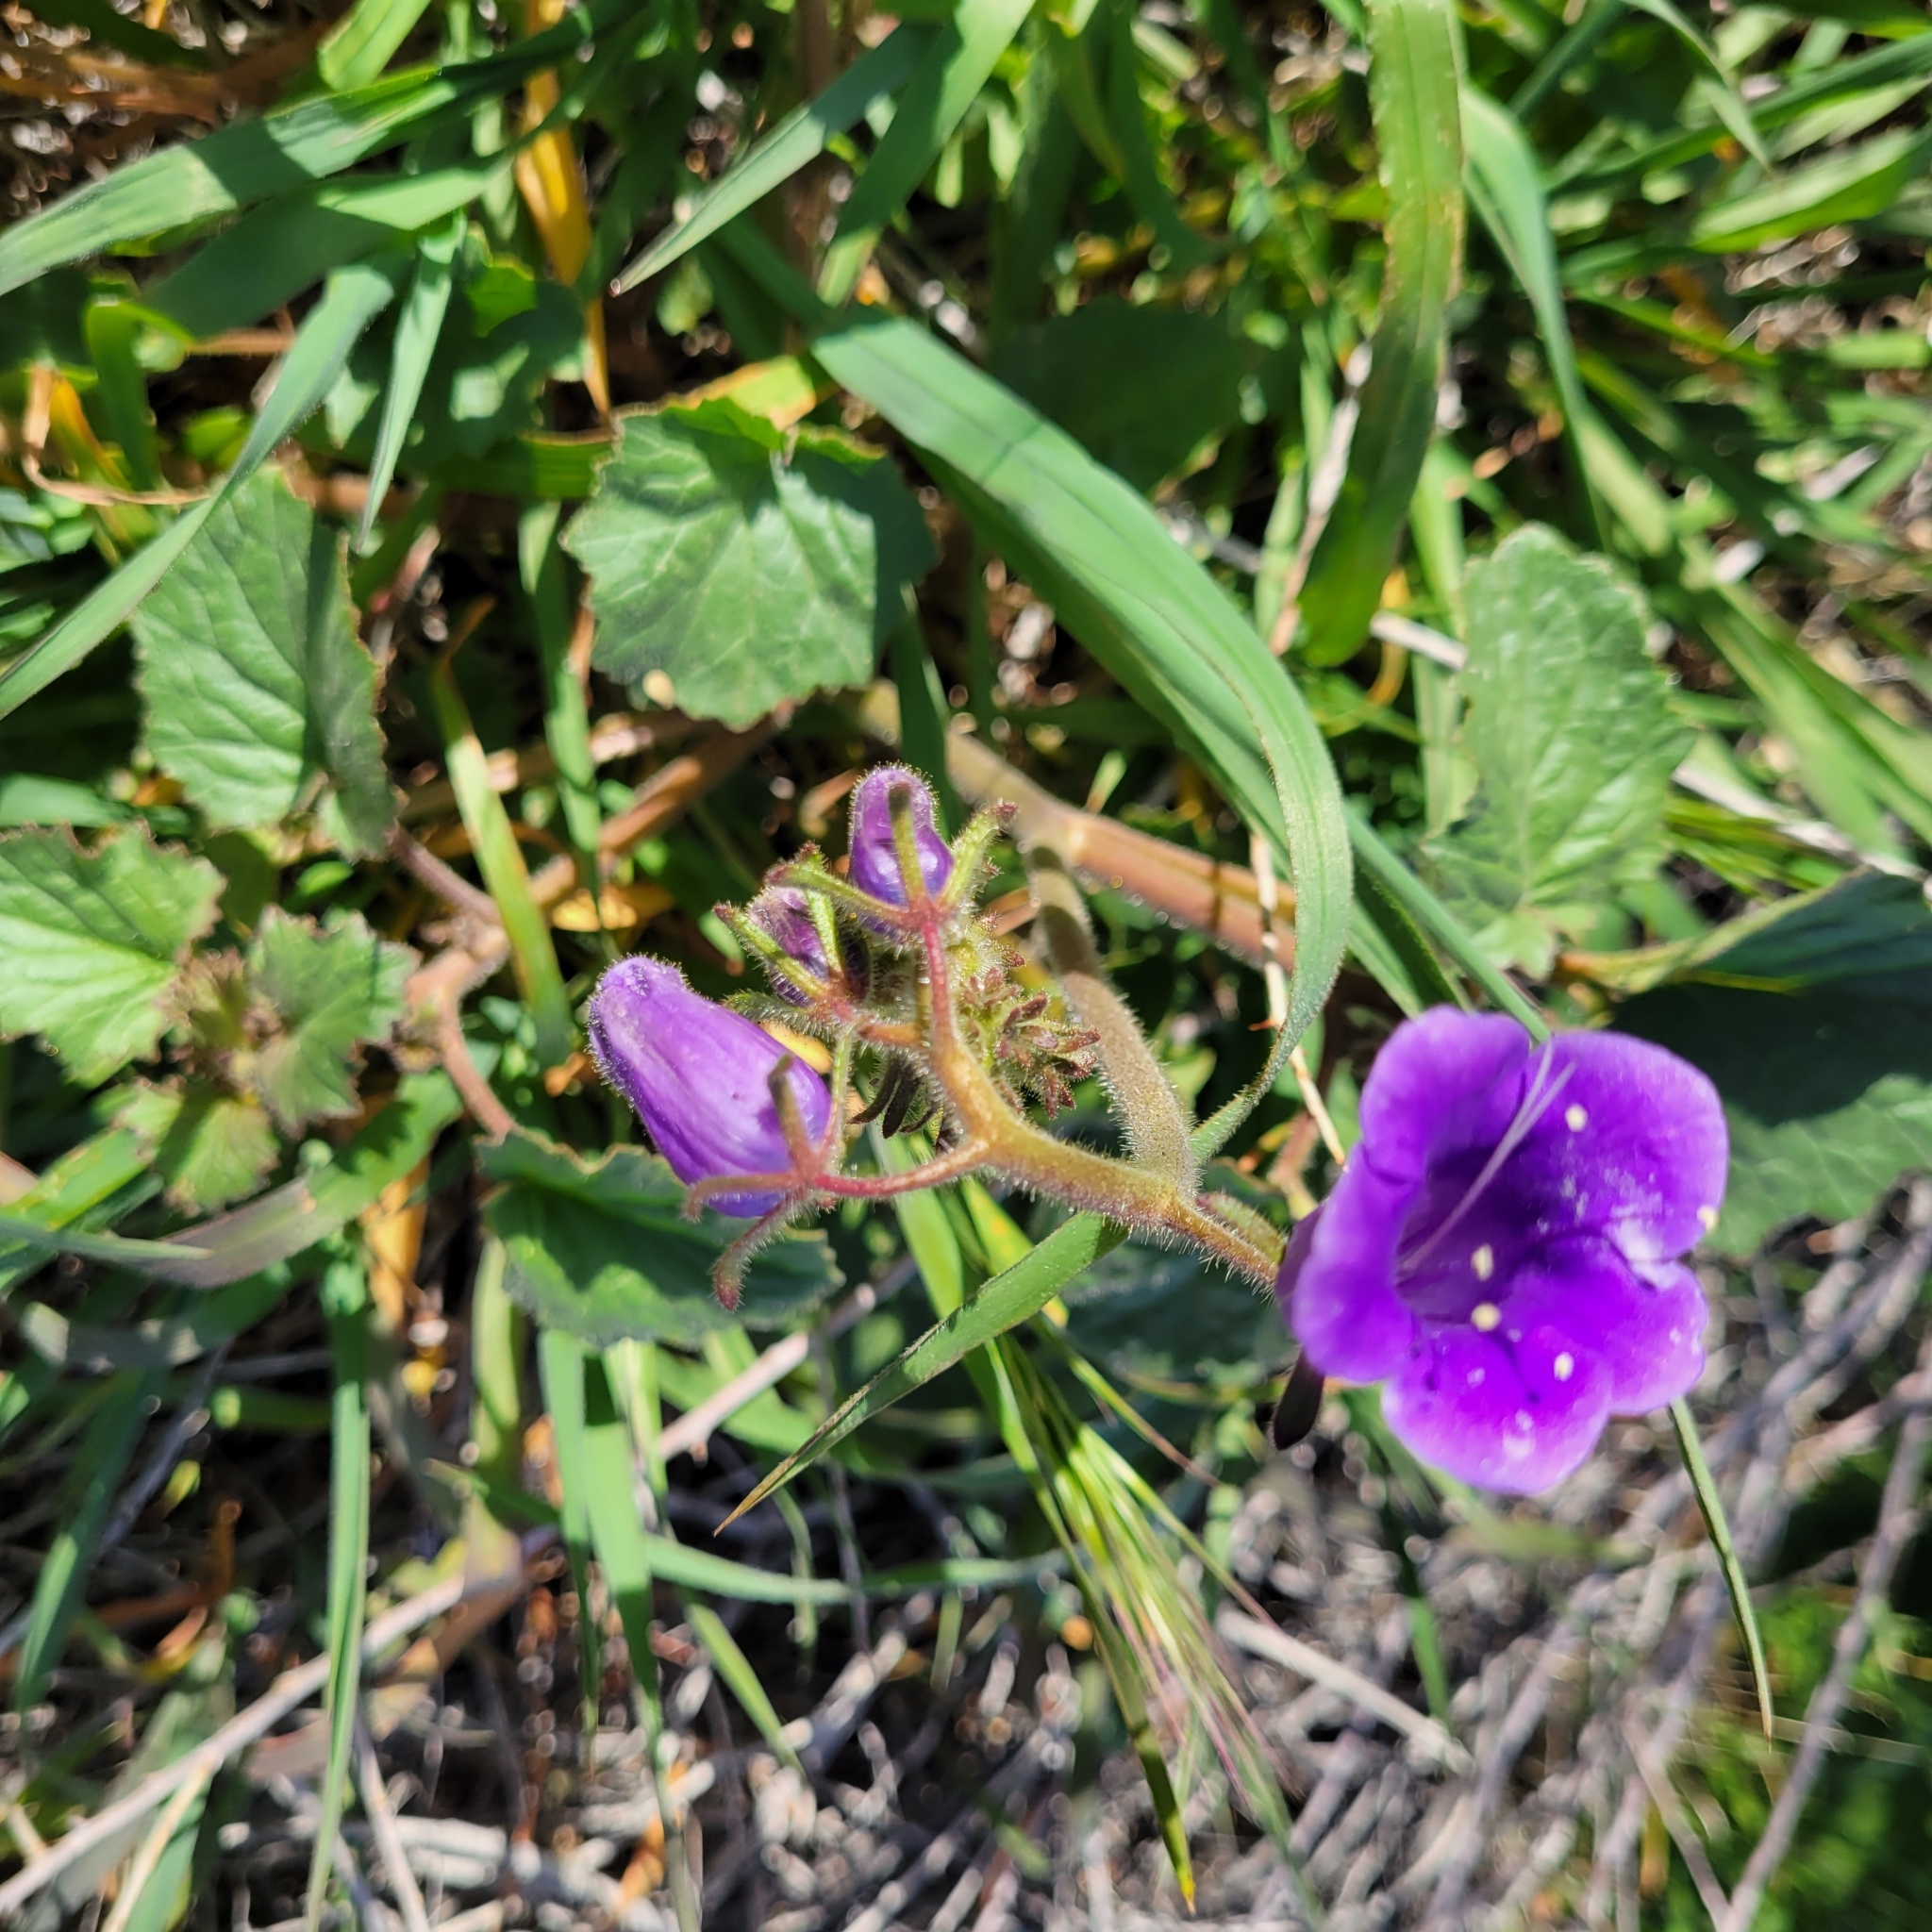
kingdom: Plantae
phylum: Tracheophyta
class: Magnoliopsida
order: Boraginales
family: Hydrophyllaceae
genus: Phacelia
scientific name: Phacelia minor
